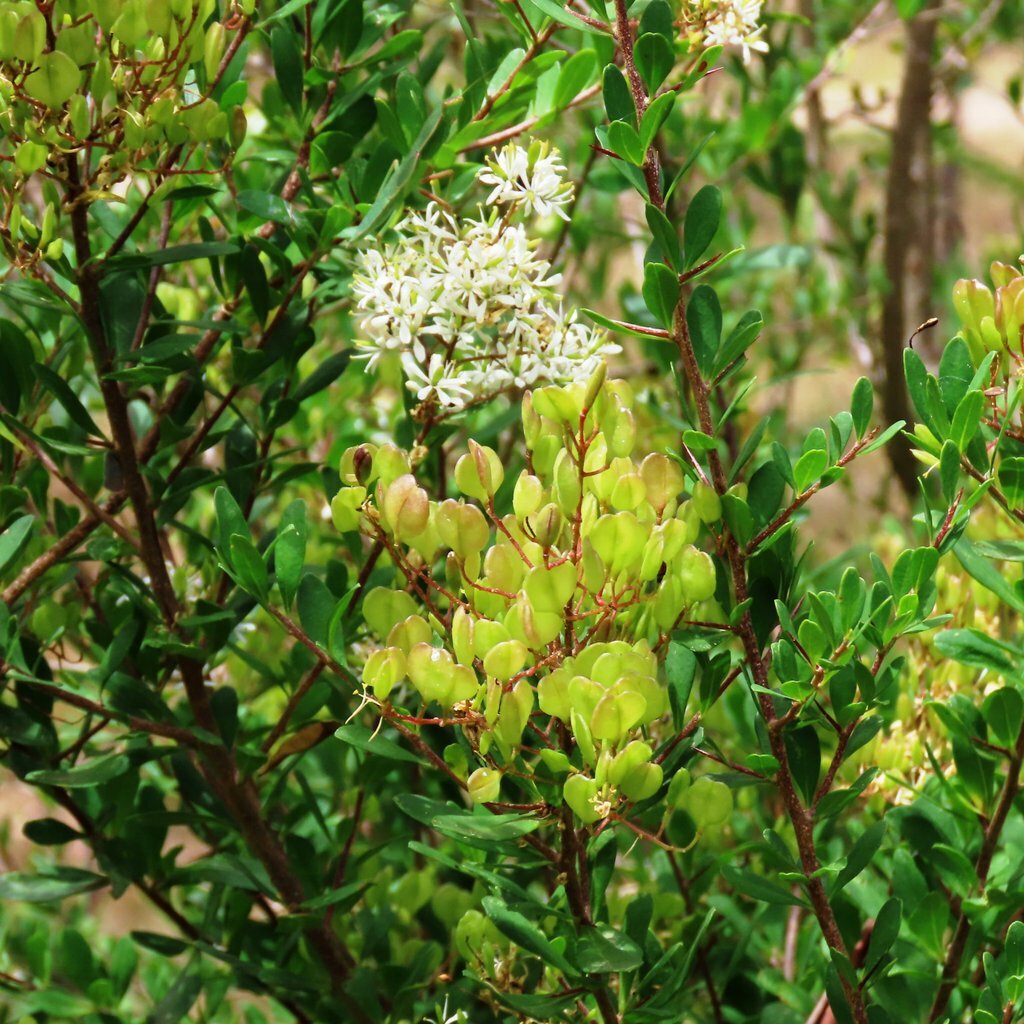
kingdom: Plantae
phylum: Tracheophyta
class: Magnoliopsida
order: Apiales
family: Pittosporaceae
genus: Bursaria
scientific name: Bursaria spinosa
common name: Australian blackthorn
